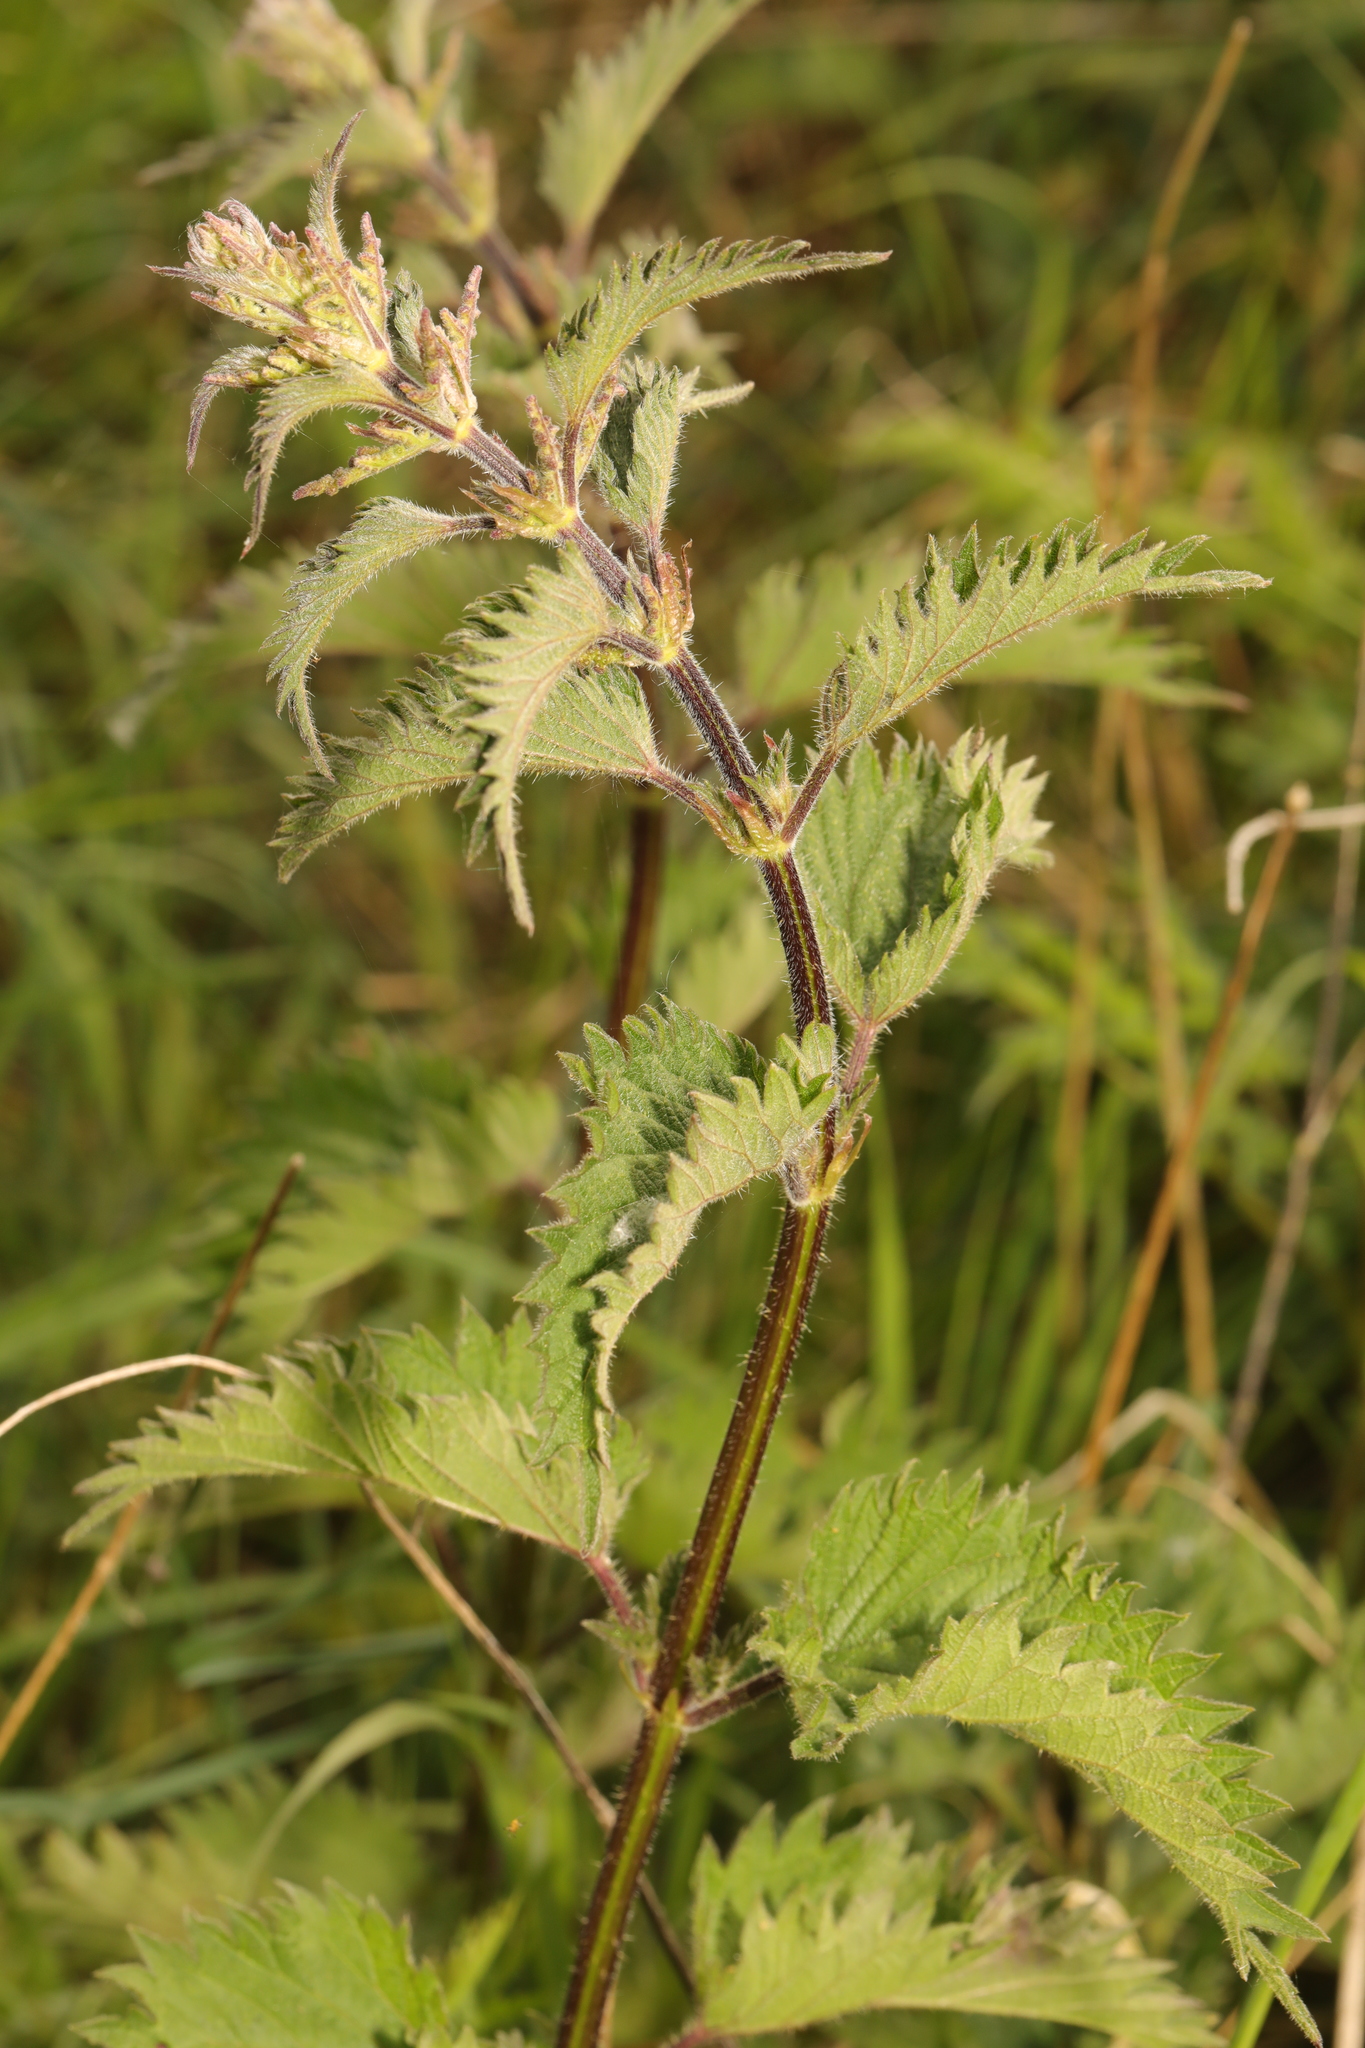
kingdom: Plantae
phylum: Tracheophyta
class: Magnoliopsida
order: Rosales
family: Urticaceae
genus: Urtica
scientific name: Urtica dioica
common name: Common nettle
